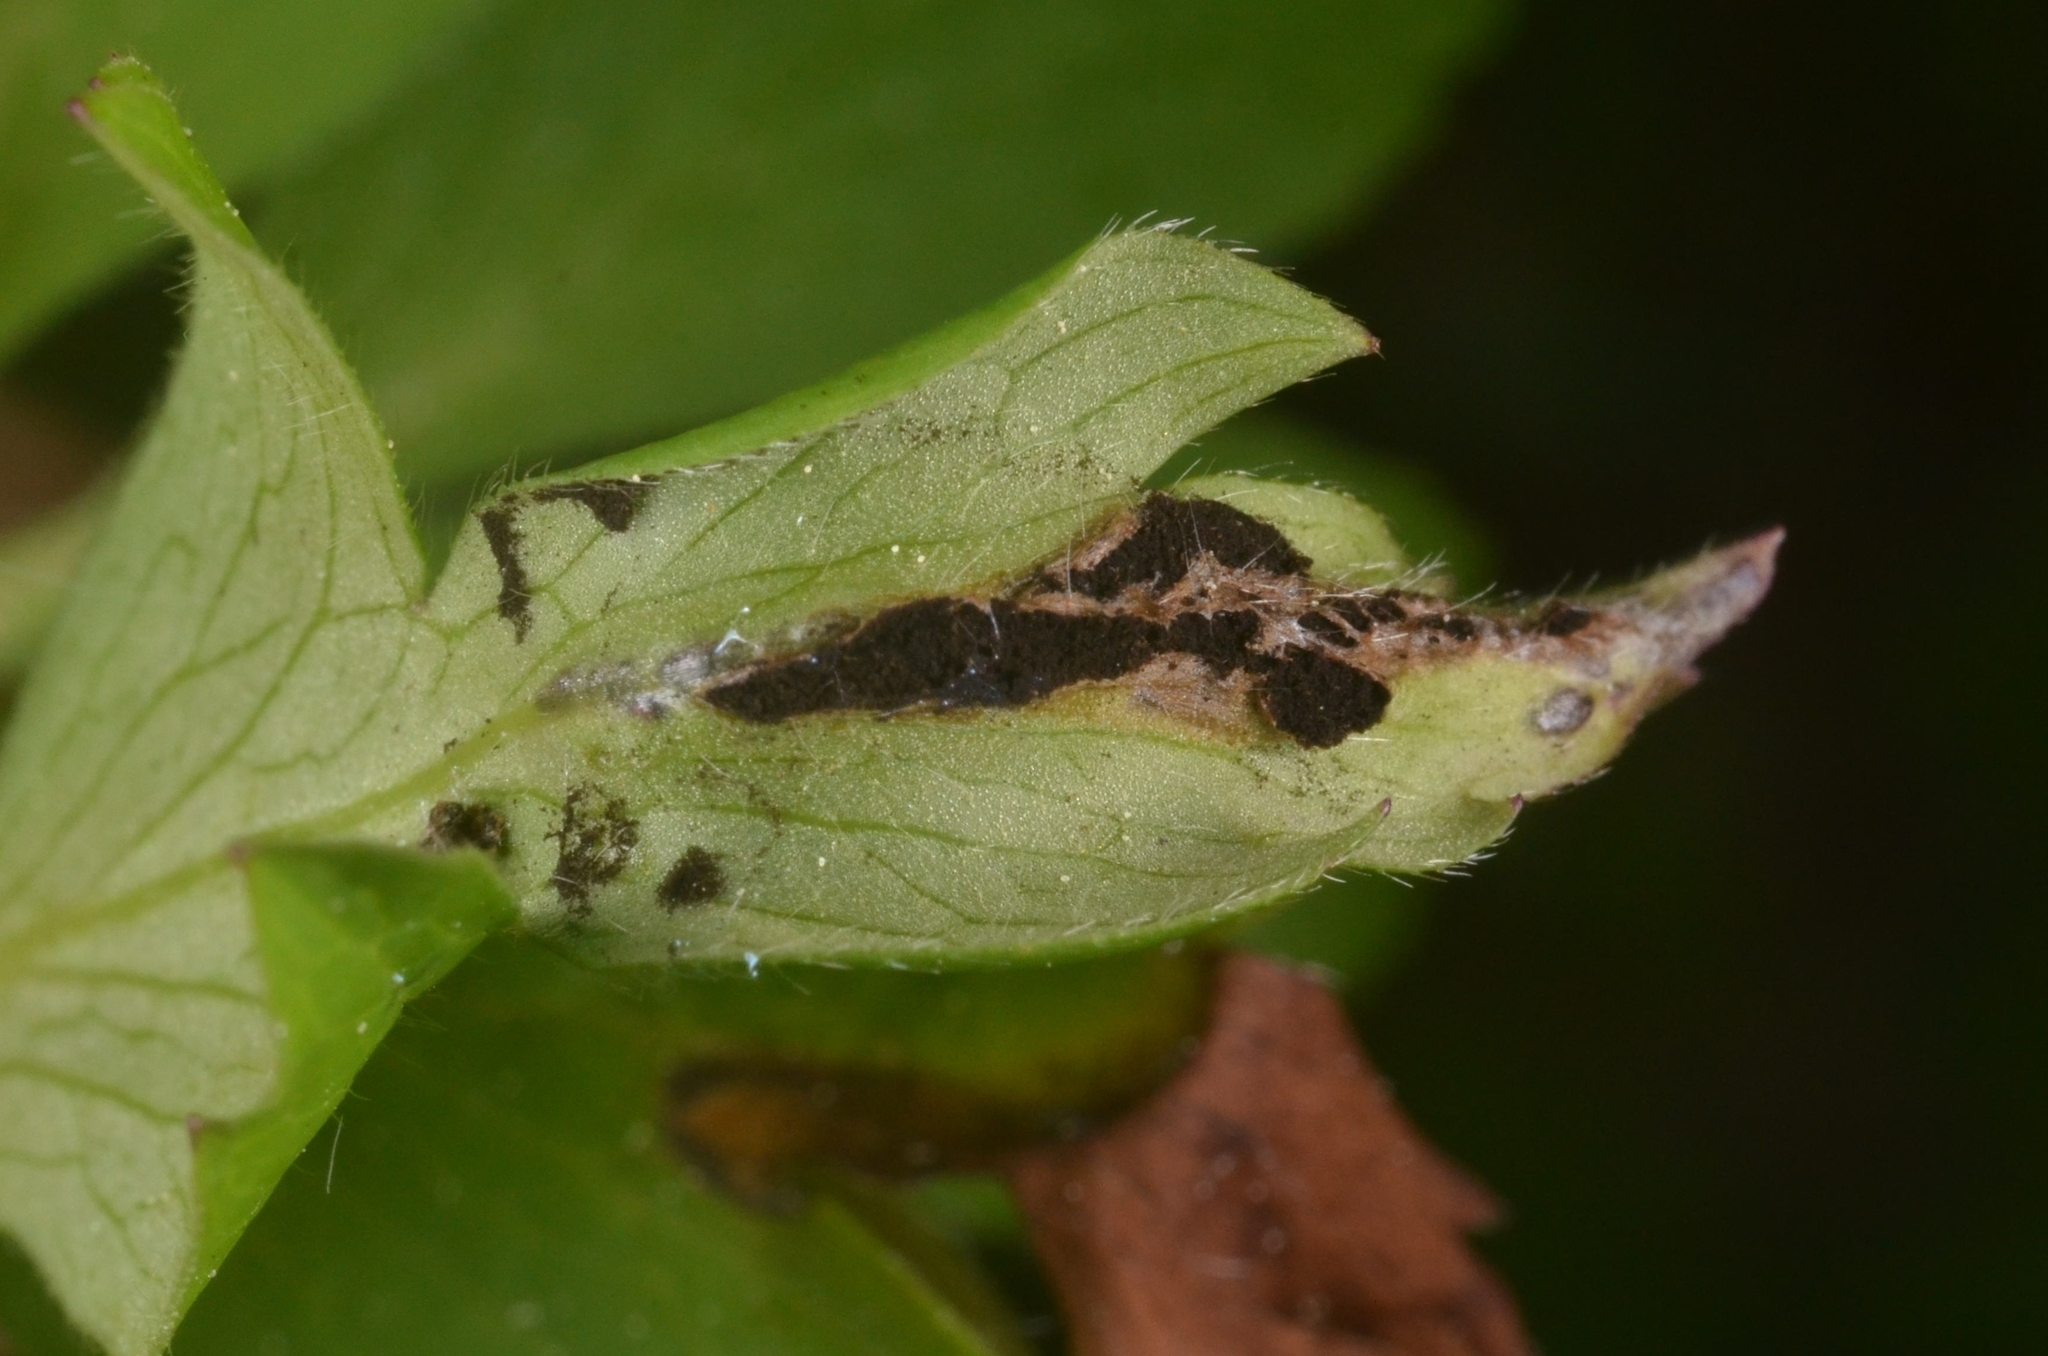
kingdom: Fungi
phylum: Basidiomycota
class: Ustilaginomycetes
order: Urocystidales
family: Urocystidaceae
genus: Urocystis
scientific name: Urocystis anemones
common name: Anemone smut
